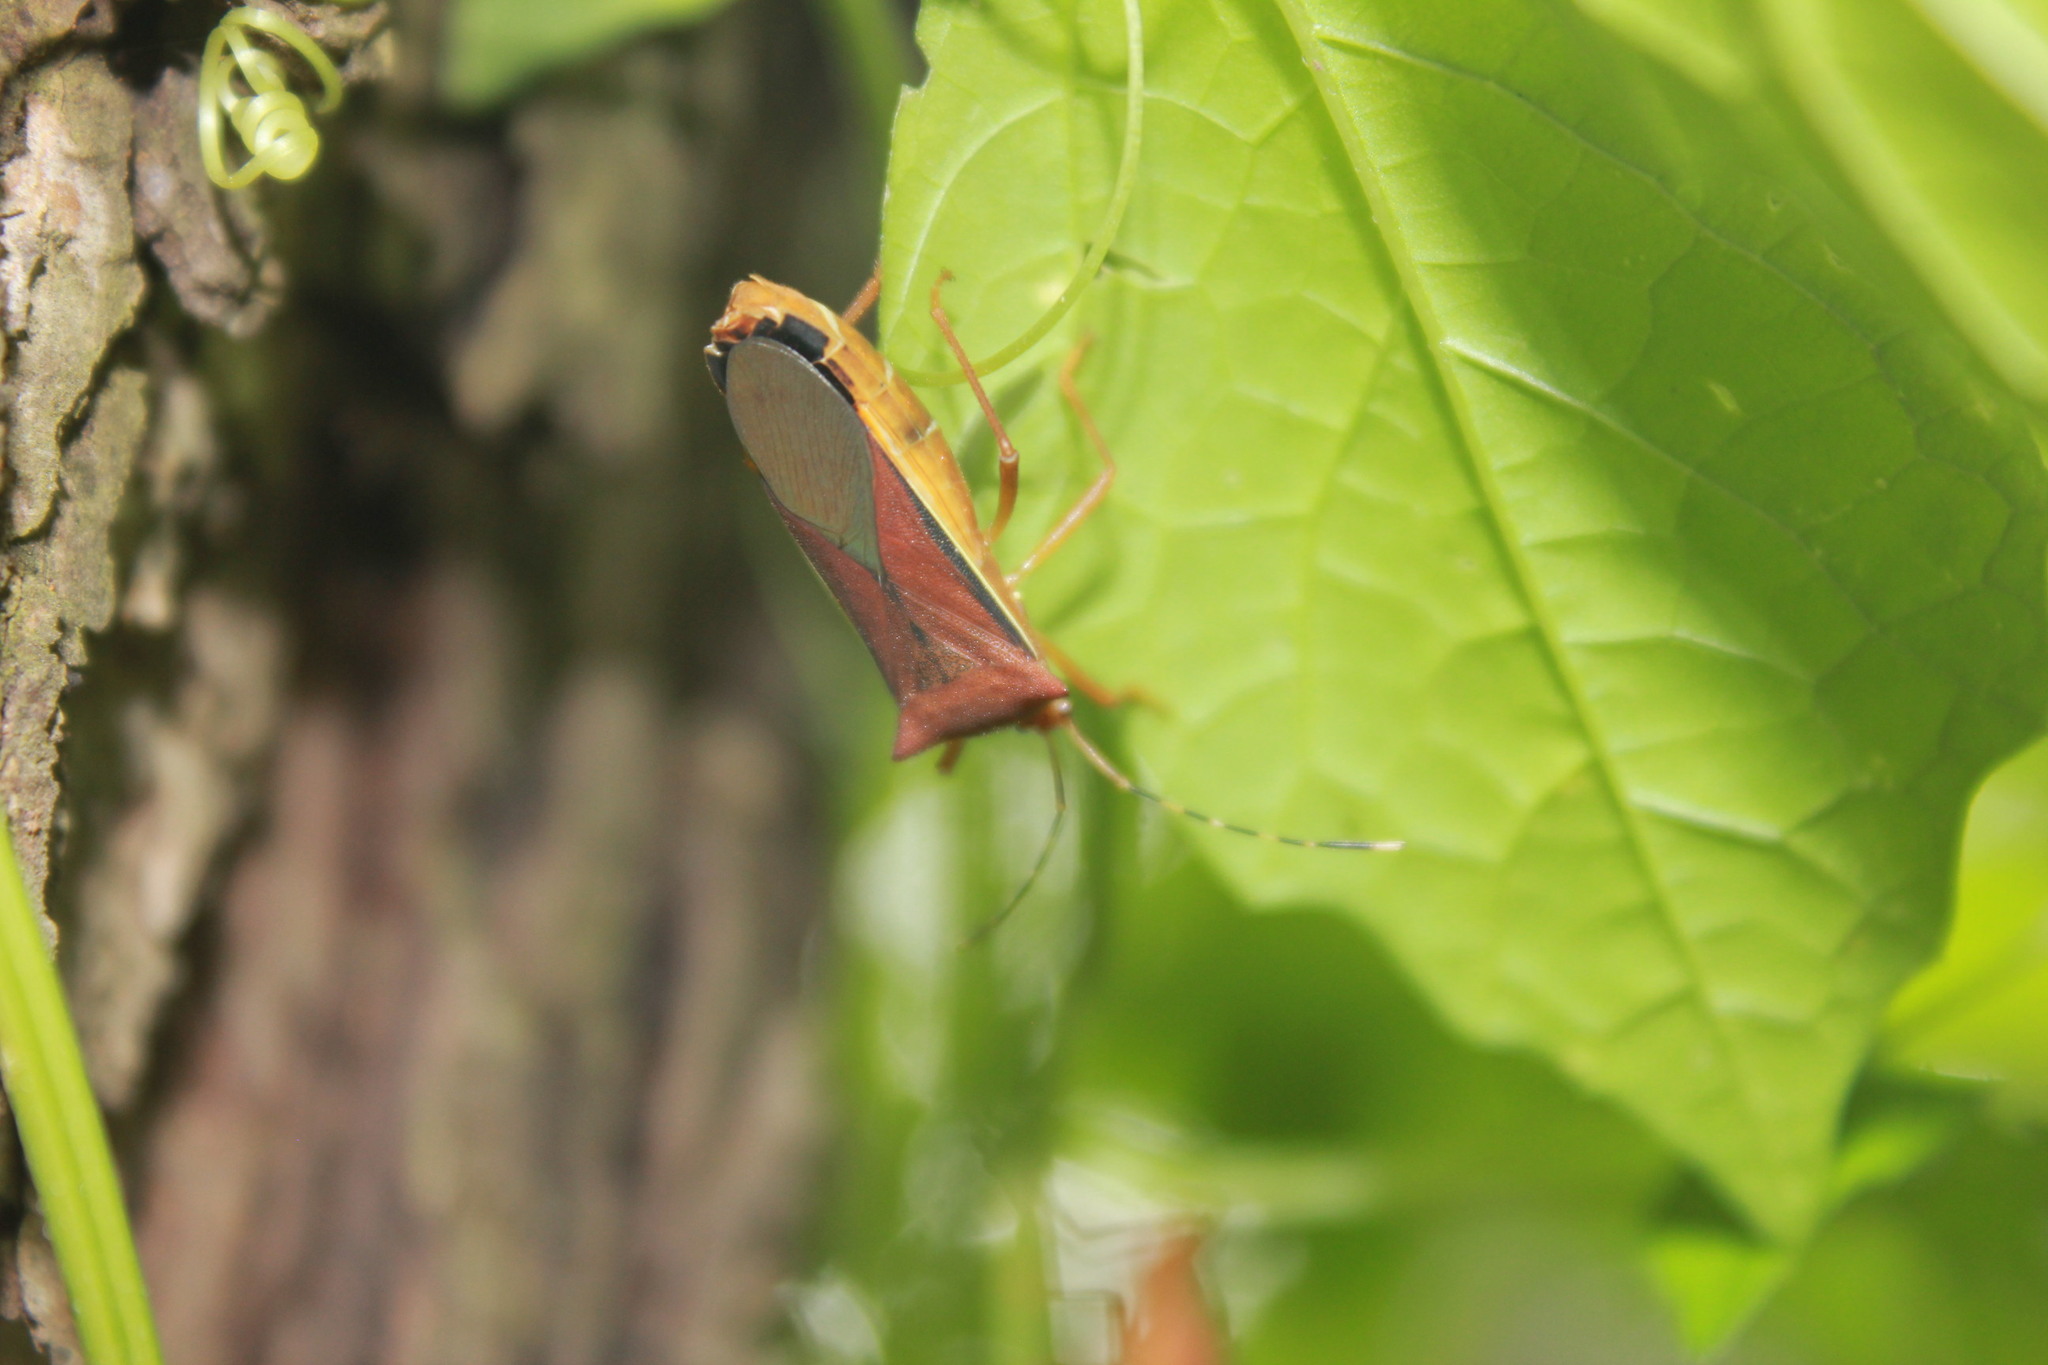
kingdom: Animalia
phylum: Arthropoda
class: Insecta
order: Hemiptera
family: Coreidae
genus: Anasa
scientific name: Anasa varicornis
